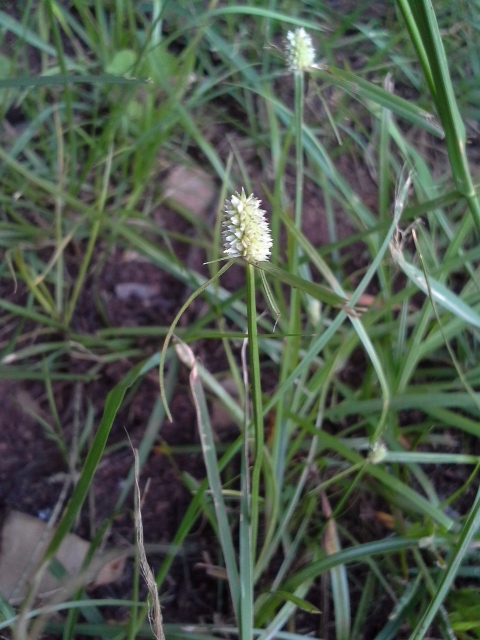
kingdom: Plantae
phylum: Tracheophyta
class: Liliopsida
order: Poales
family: Cyperaceae
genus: Cyperus
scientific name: Cyperus sesquiflorus
